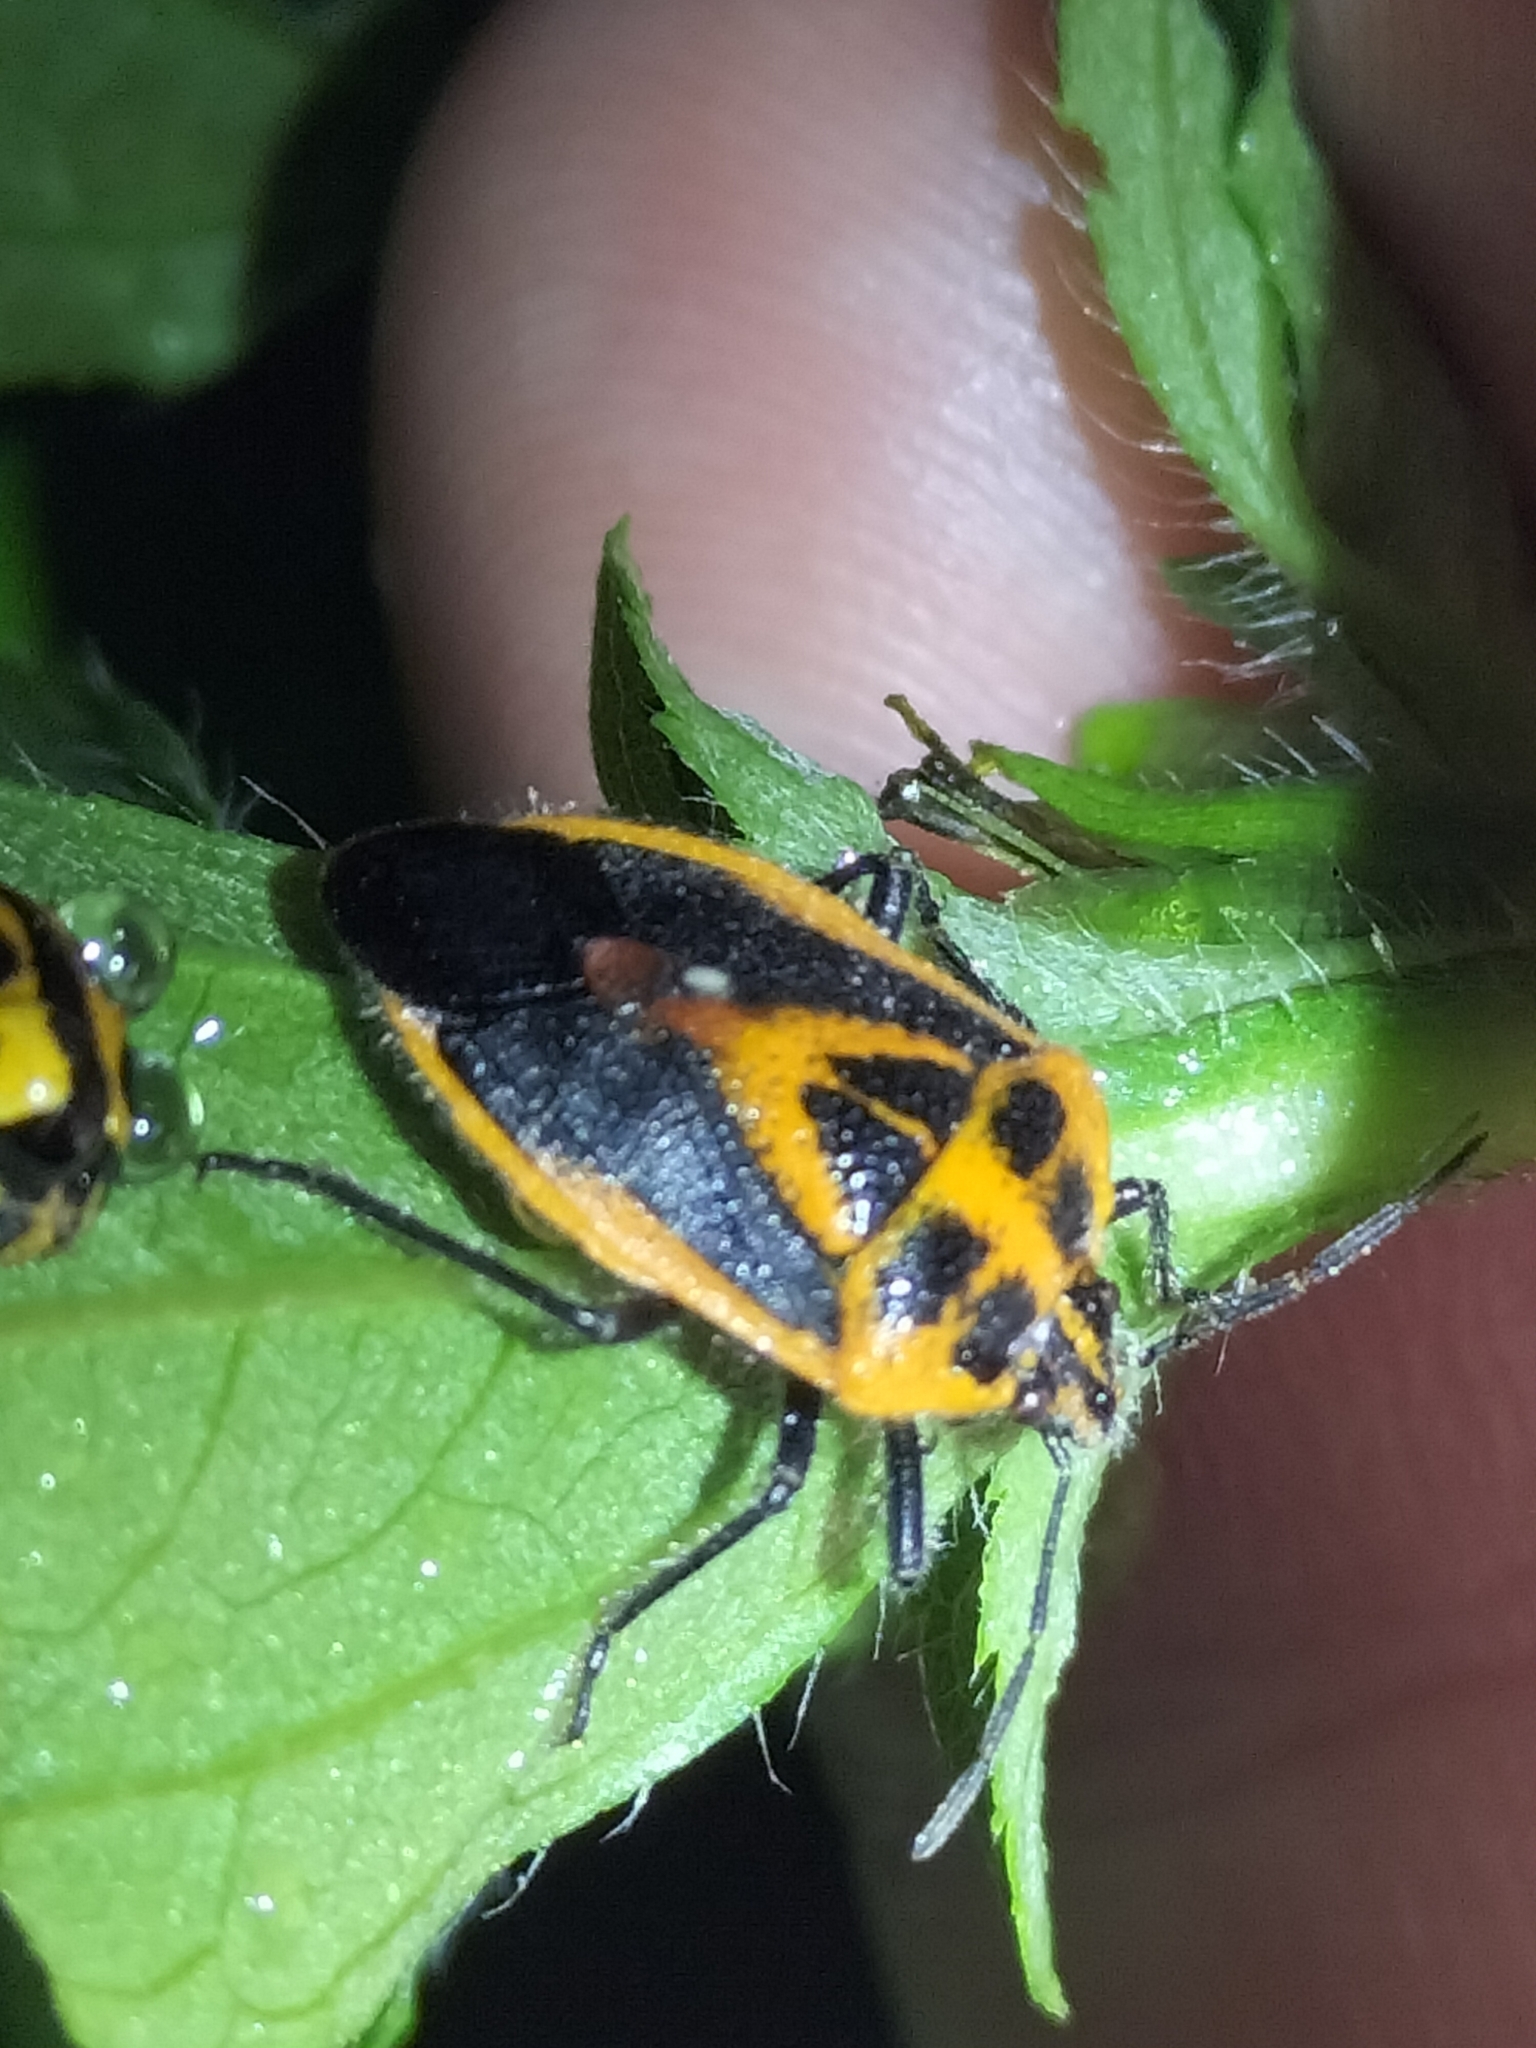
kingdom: Animalia
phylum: Arthropoda
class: Insecta
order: Hemiptera
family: Pentatomidae
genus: Agonoscelis
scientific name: Agonoscelis rutila
